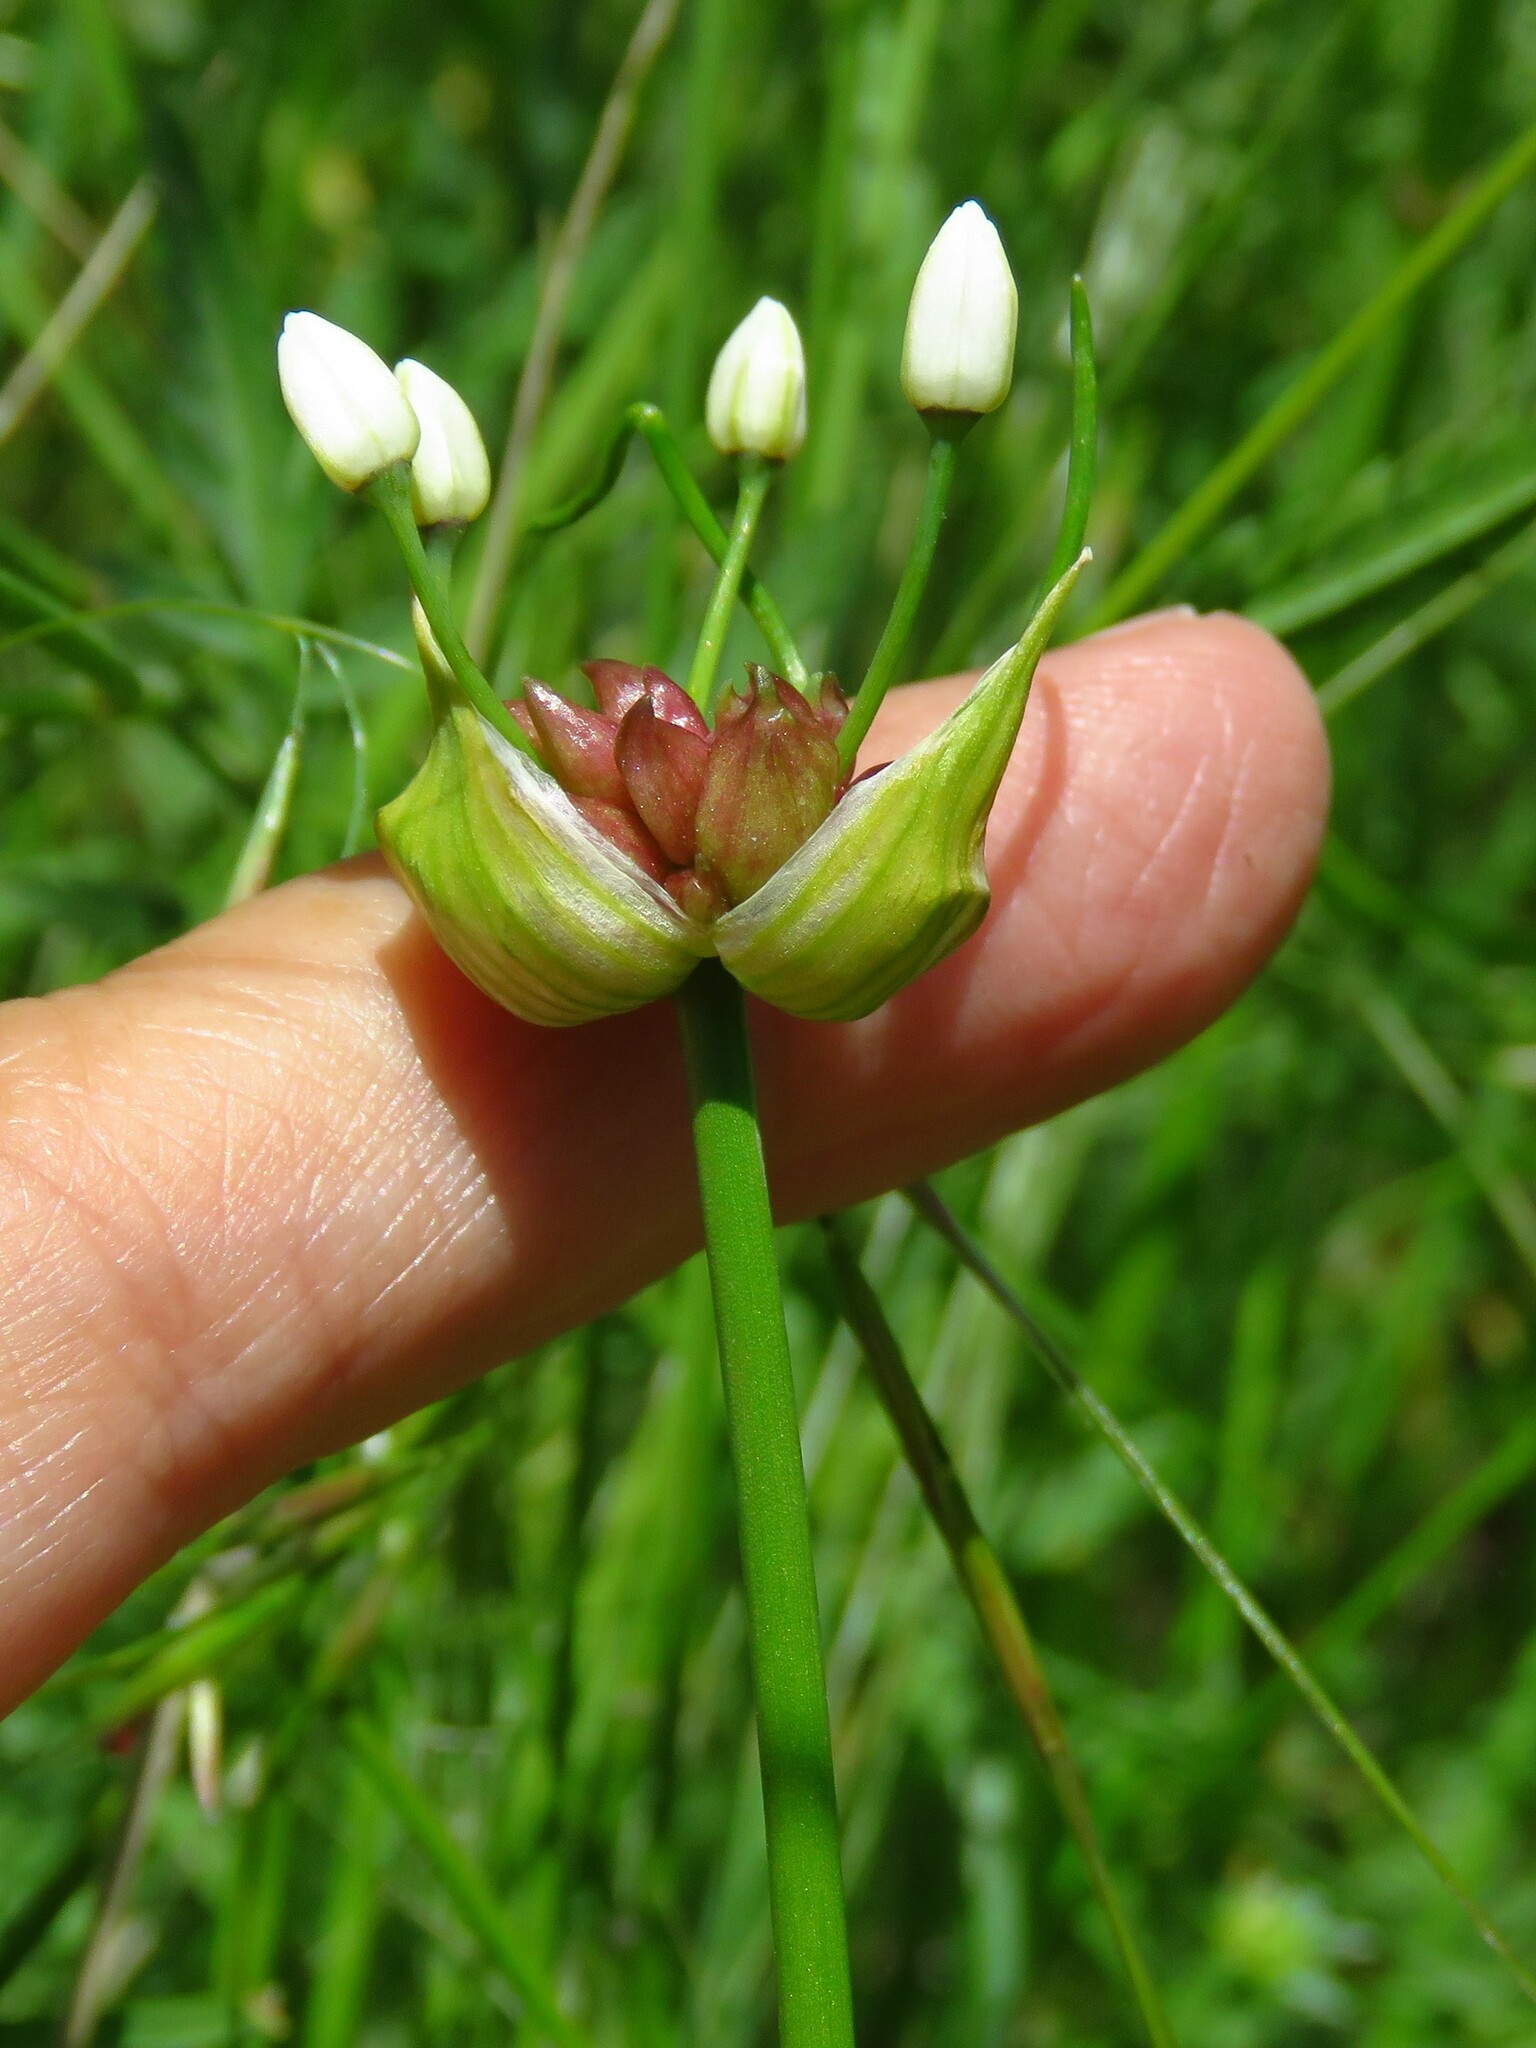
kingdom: Plantae
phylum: Tracheophyta
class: Liliopsida
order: Asparagales
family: Amaryllidaceae
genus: Allium
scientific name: Allium canadense
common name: Meadow garlic
